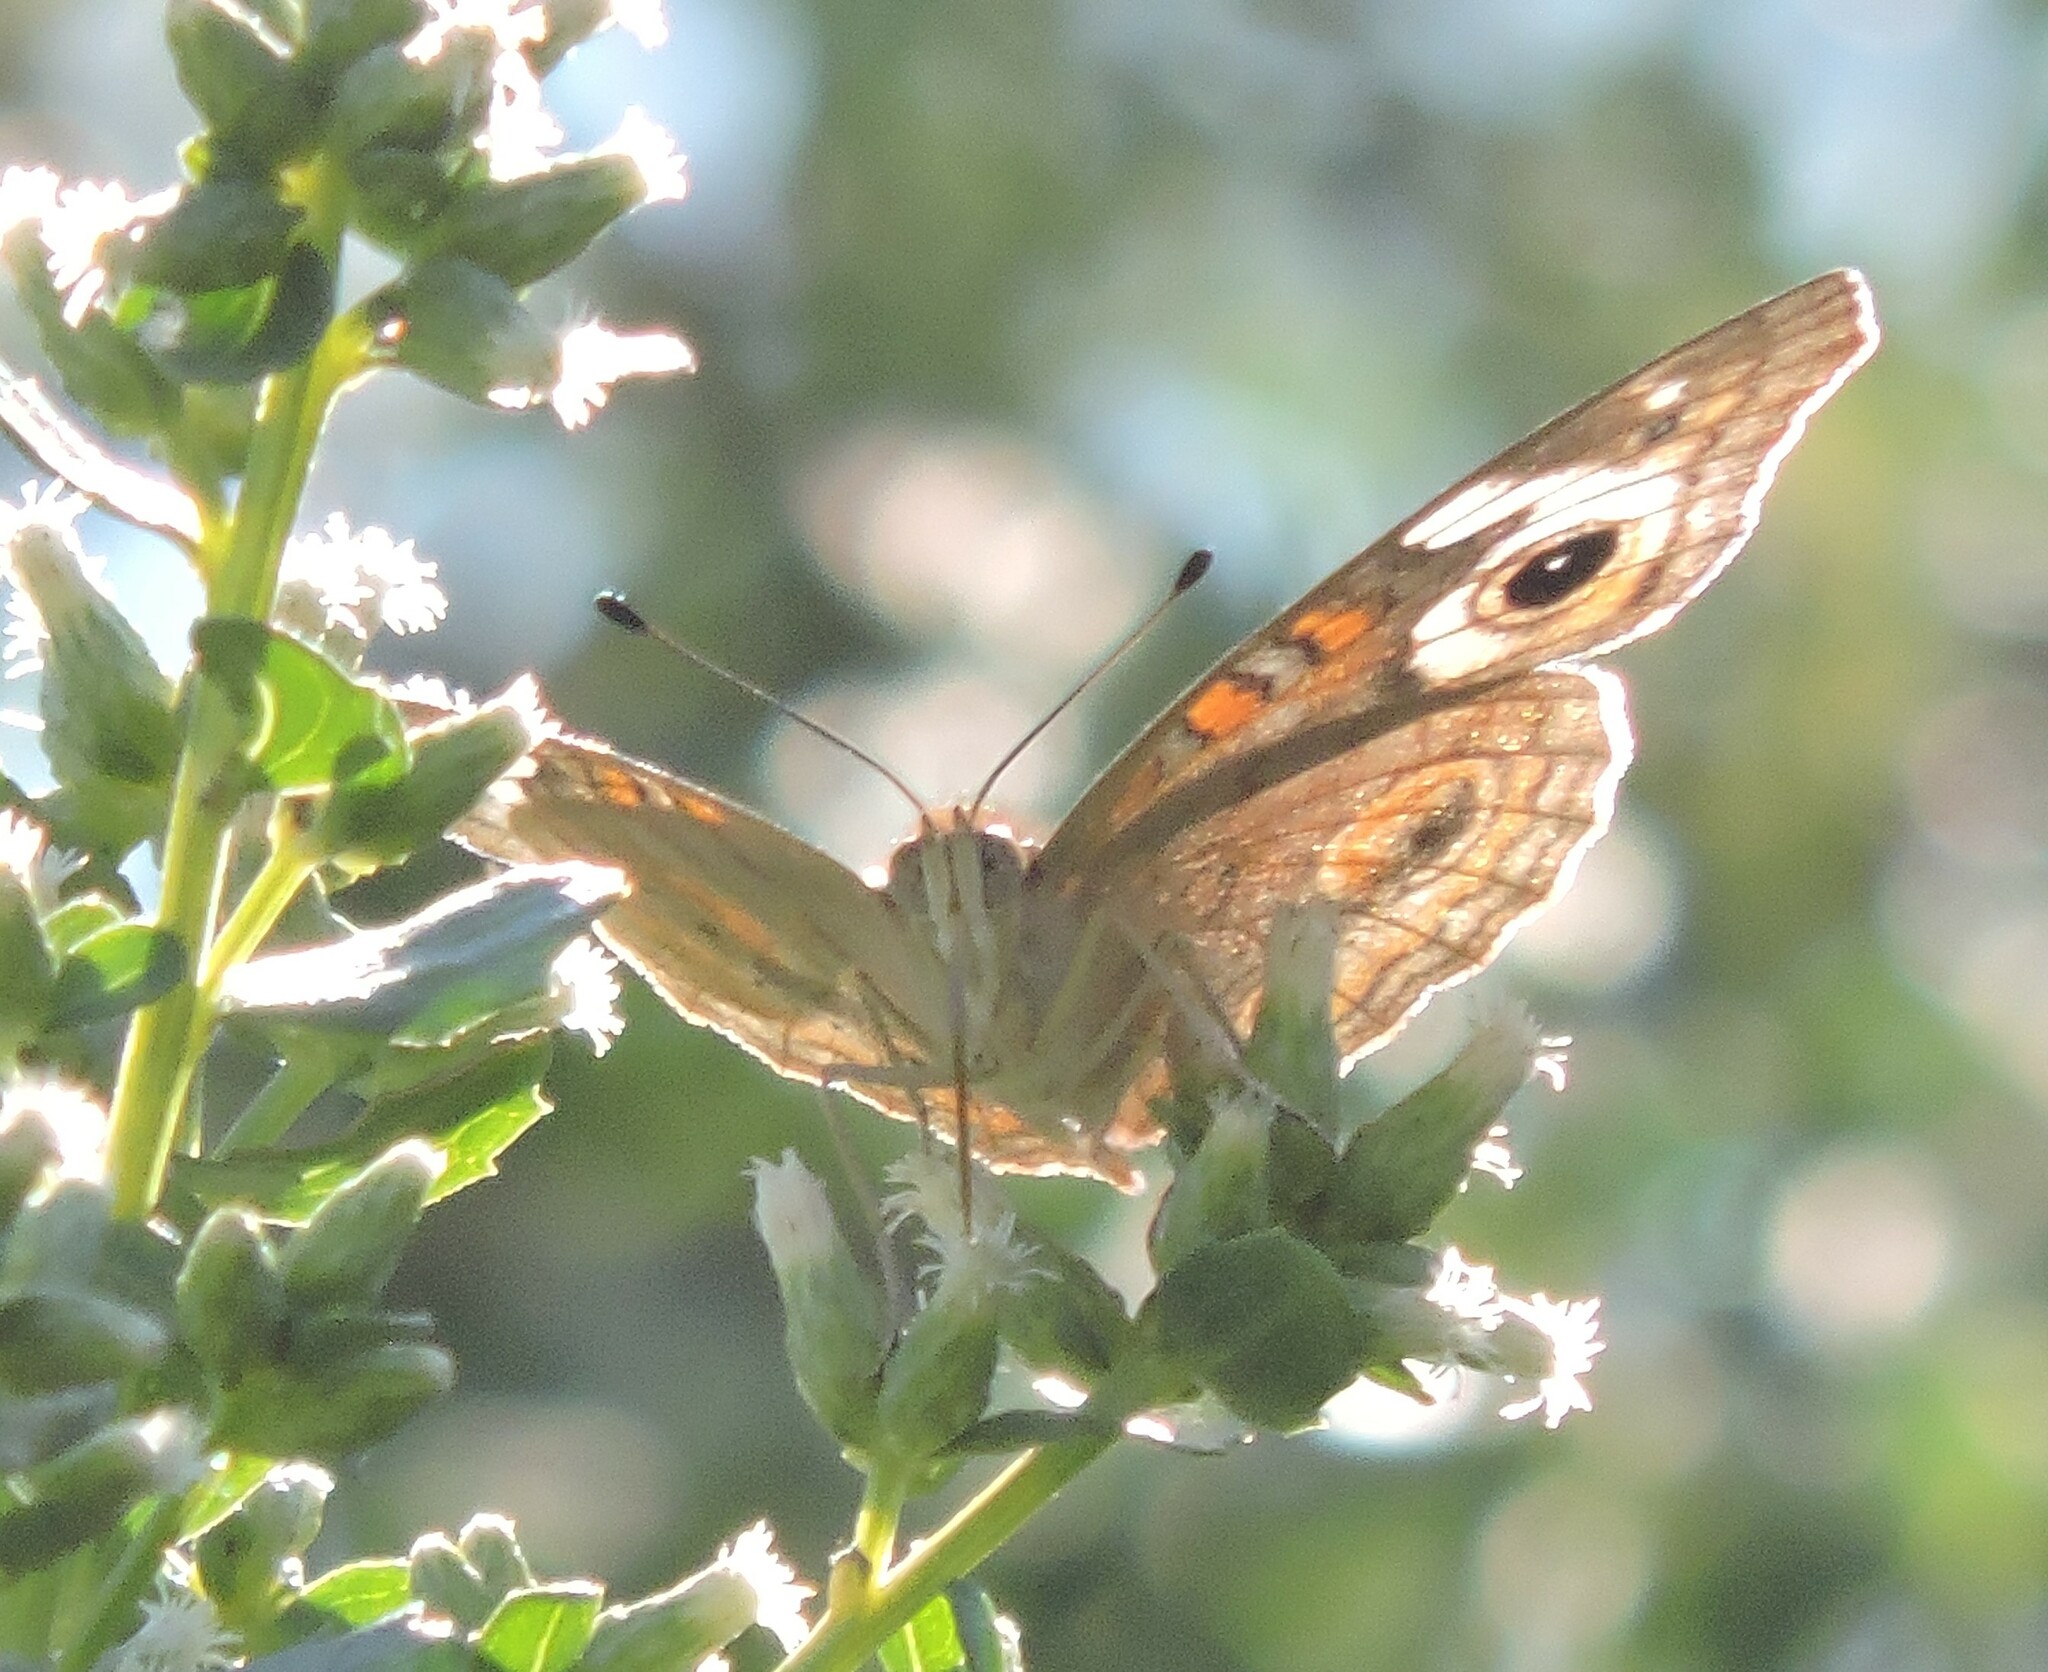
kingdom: Animalia
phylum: Arthropoda
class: Insecta
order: Lepidoptera
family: Nymphalidae
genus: Junonia
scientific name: Junonia grisea
